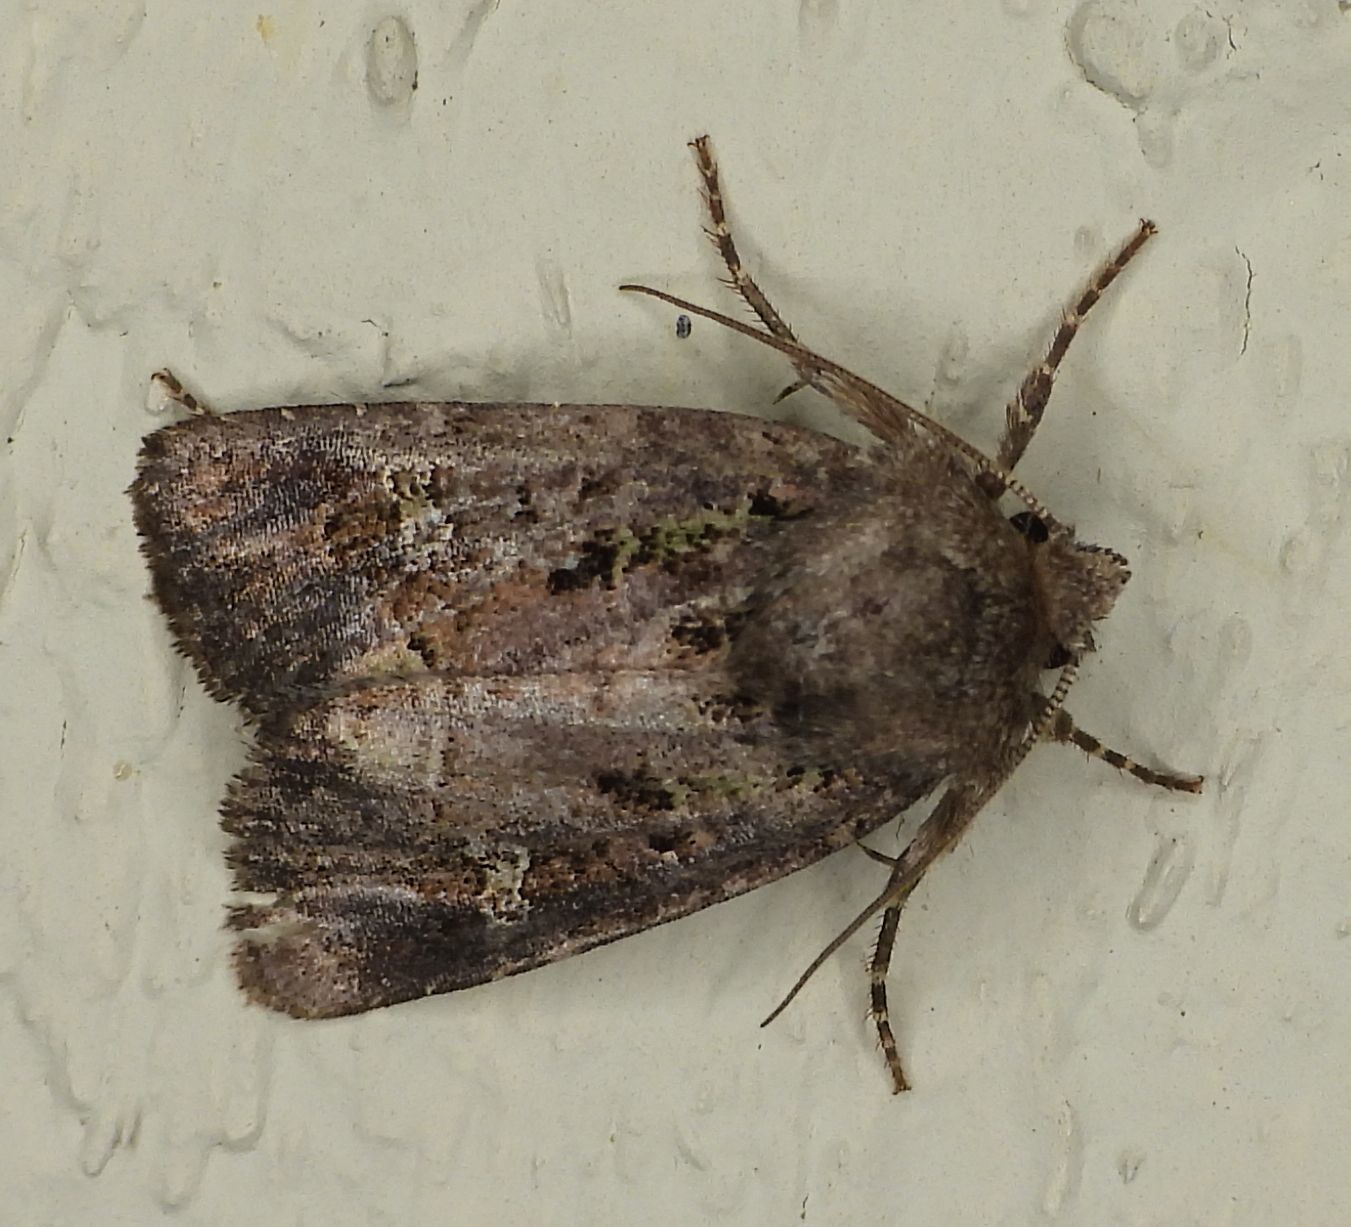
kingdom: Animalia
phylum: Arthropoda
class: Insecta
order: Lepidoptera
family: Noctuidae
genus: Lacinipolia
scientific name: Lacinipolia renigera
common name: Kidney-spotted minor
